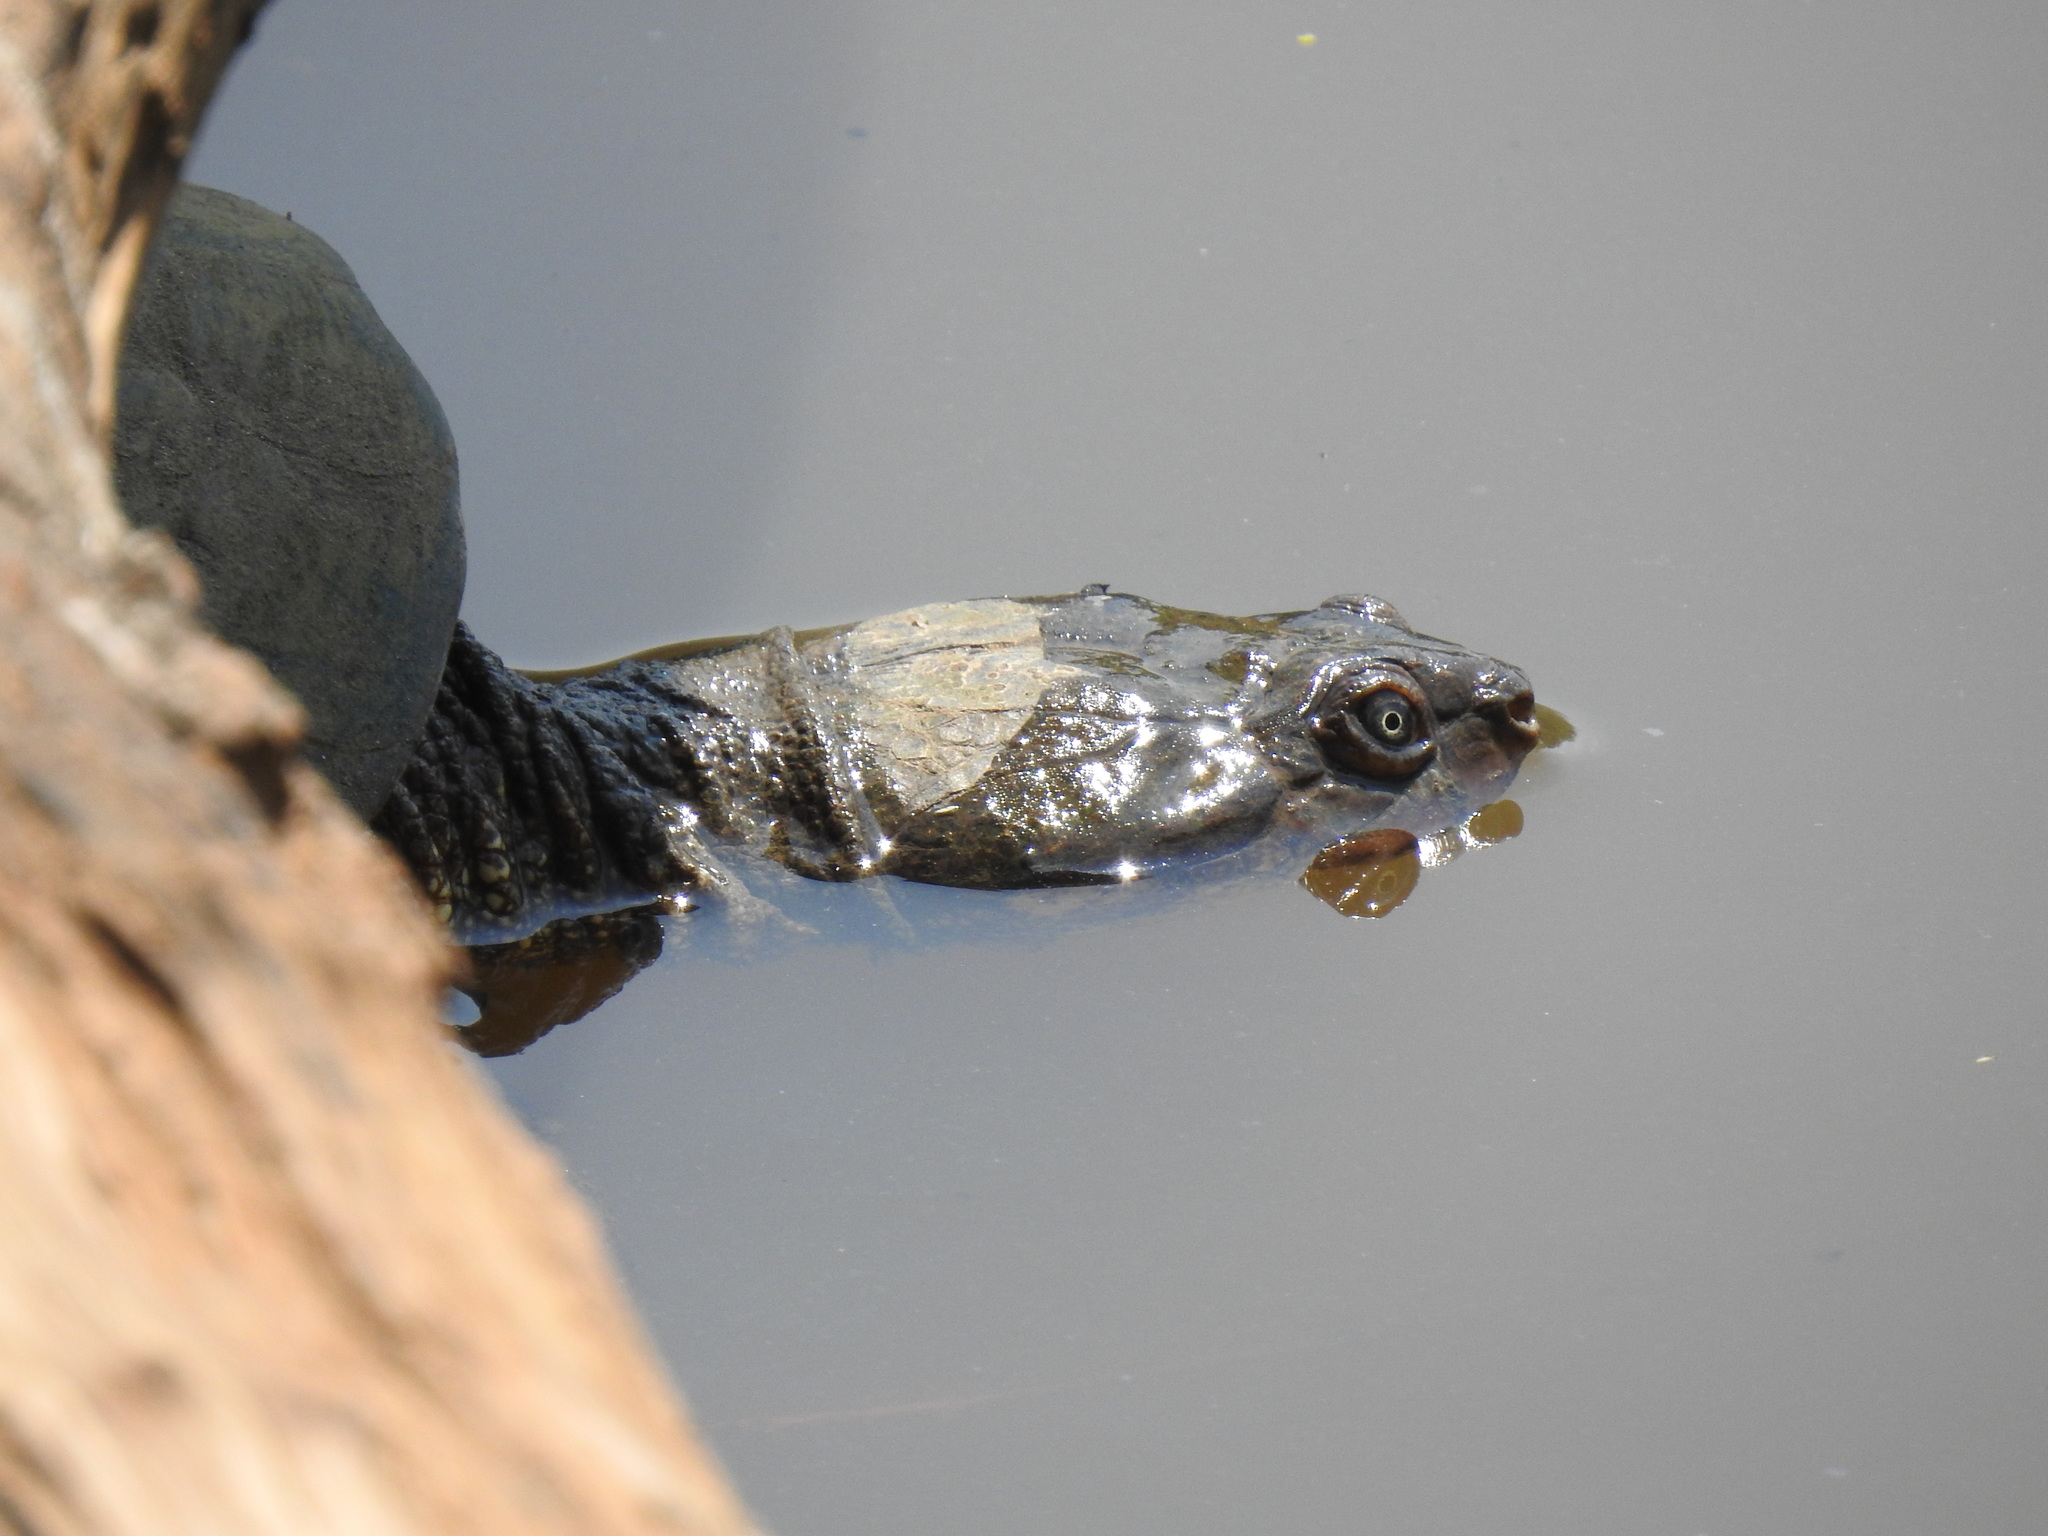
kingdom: Animalia
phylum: Chordata
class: Testudines
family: Pelomedusidae
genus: Pelomedusa
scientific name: Pelomedusa galeata
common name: South african helmeted terrapin
